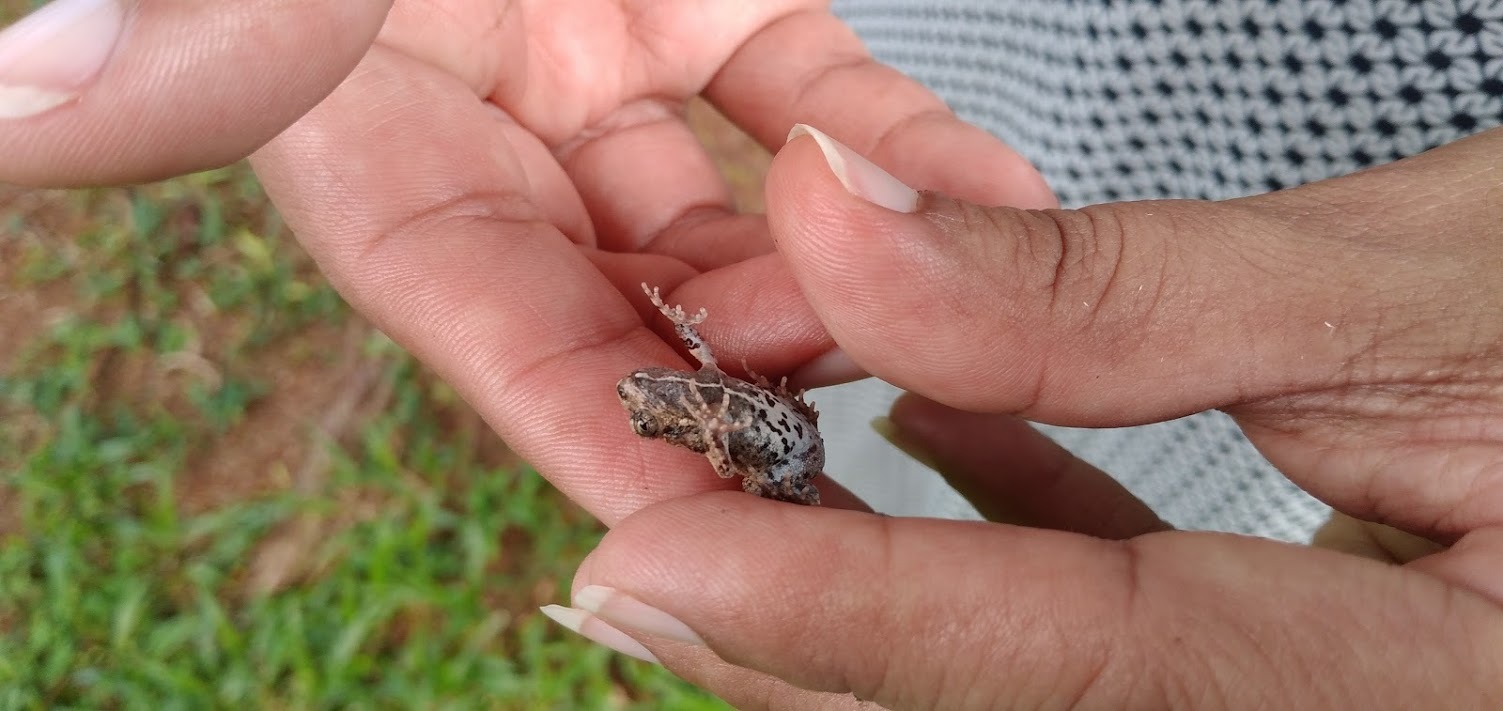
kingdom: Animalia
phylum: Chordata
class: Amphibia
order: Anura
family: Leptodactylidae
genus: Engystomops
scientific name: Engystomops pustulosus
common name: Tungara frog
